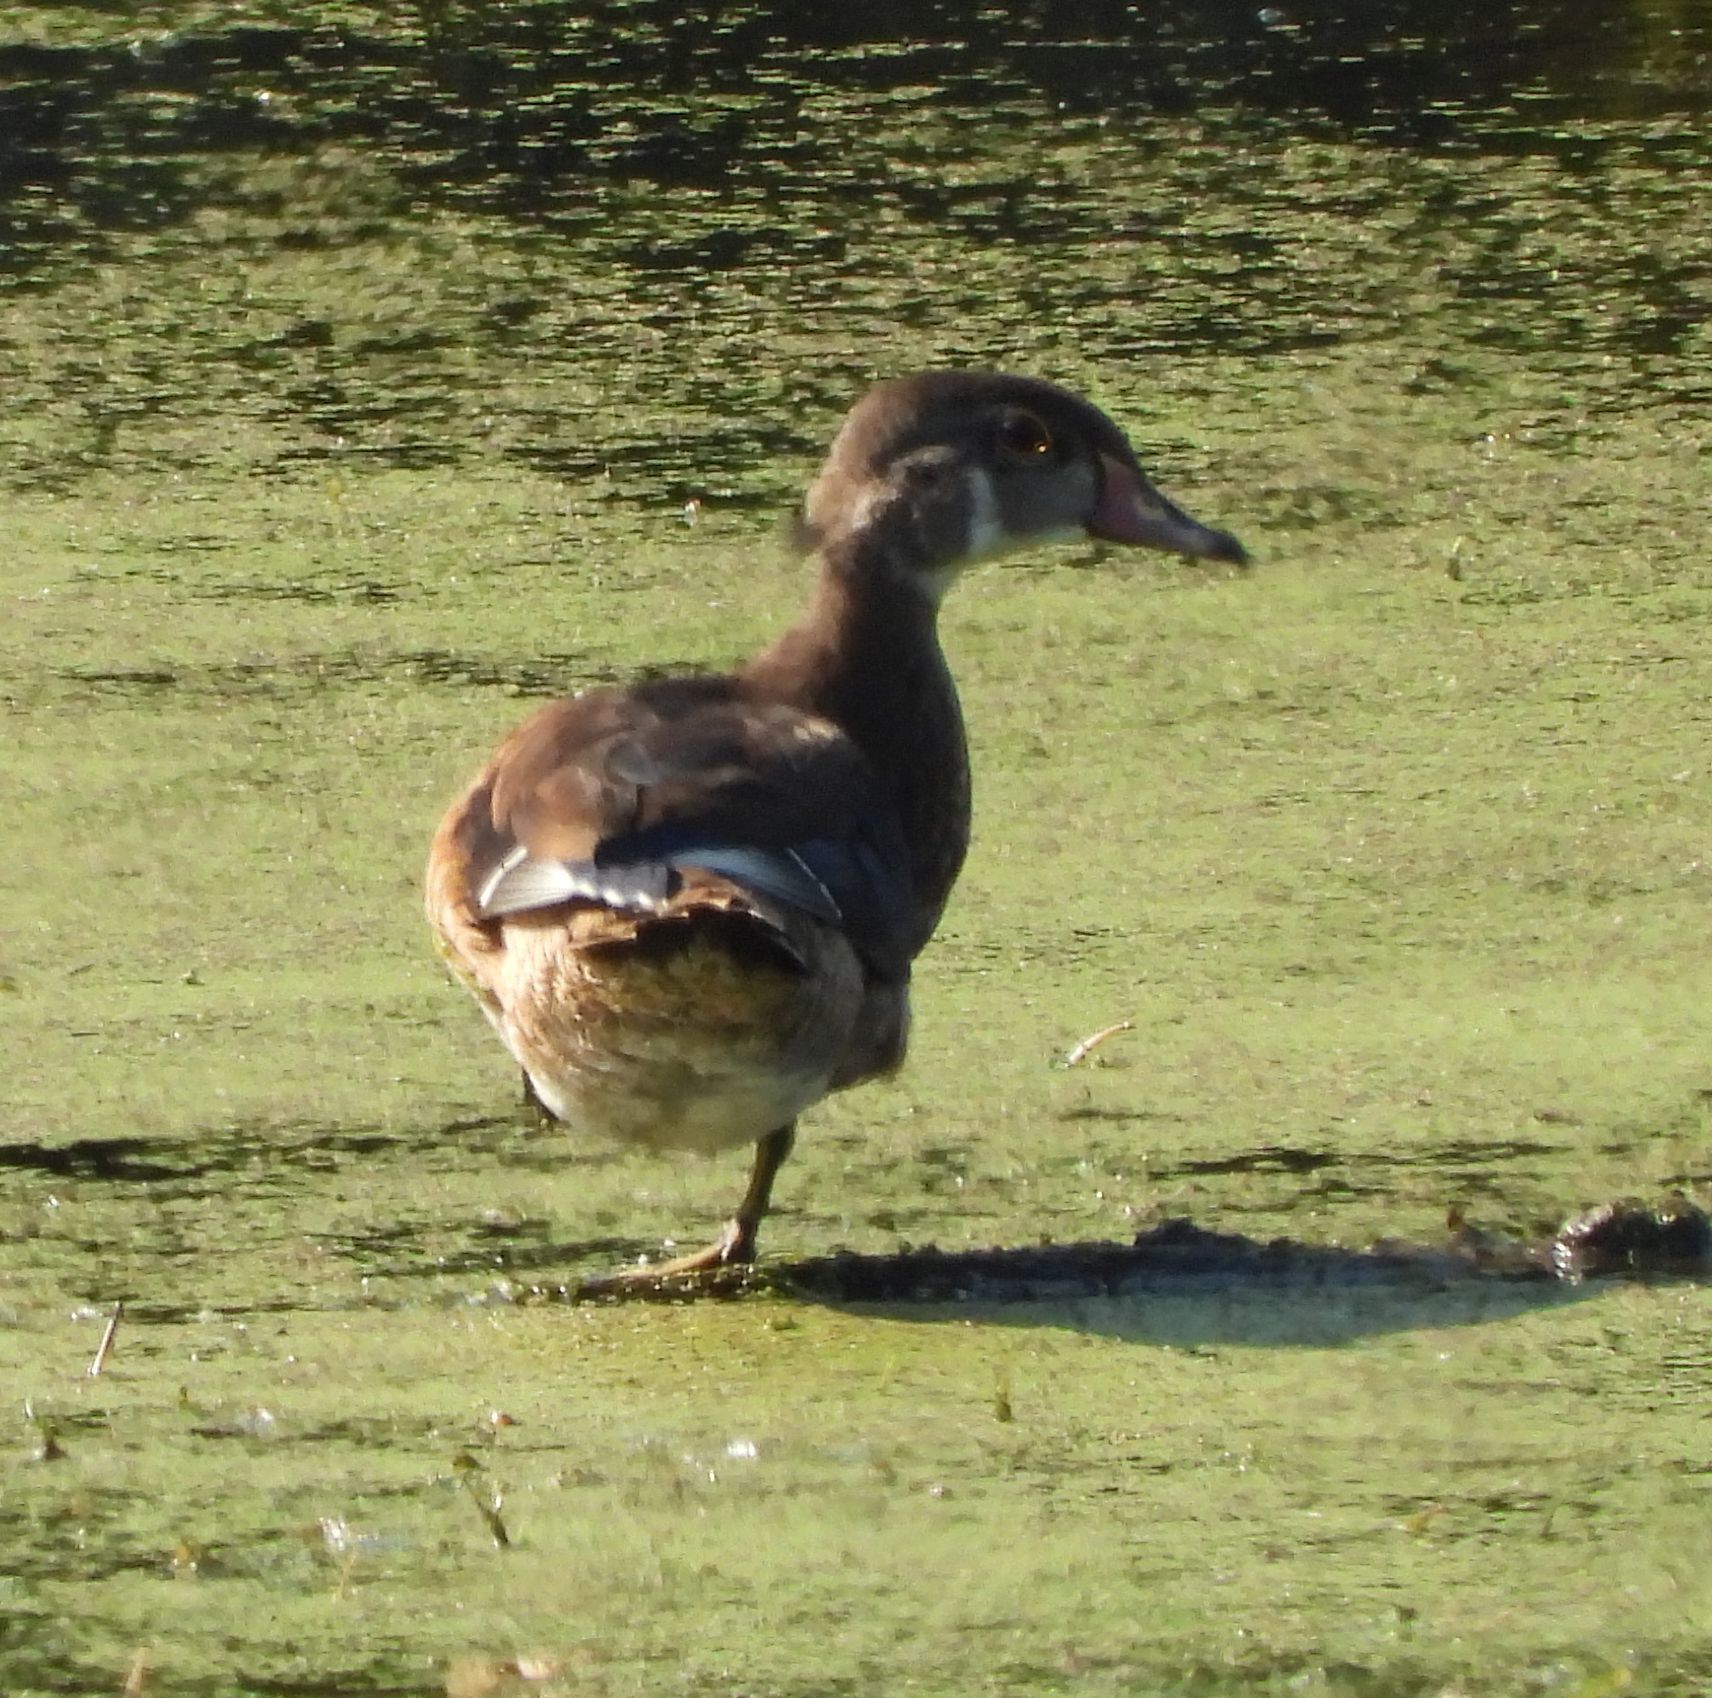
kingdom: Animalia
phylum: Chordata
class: Aves
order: Anseriformes
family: Anatidae
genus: Aix
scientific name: Aix sponsa
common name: Wood duck
